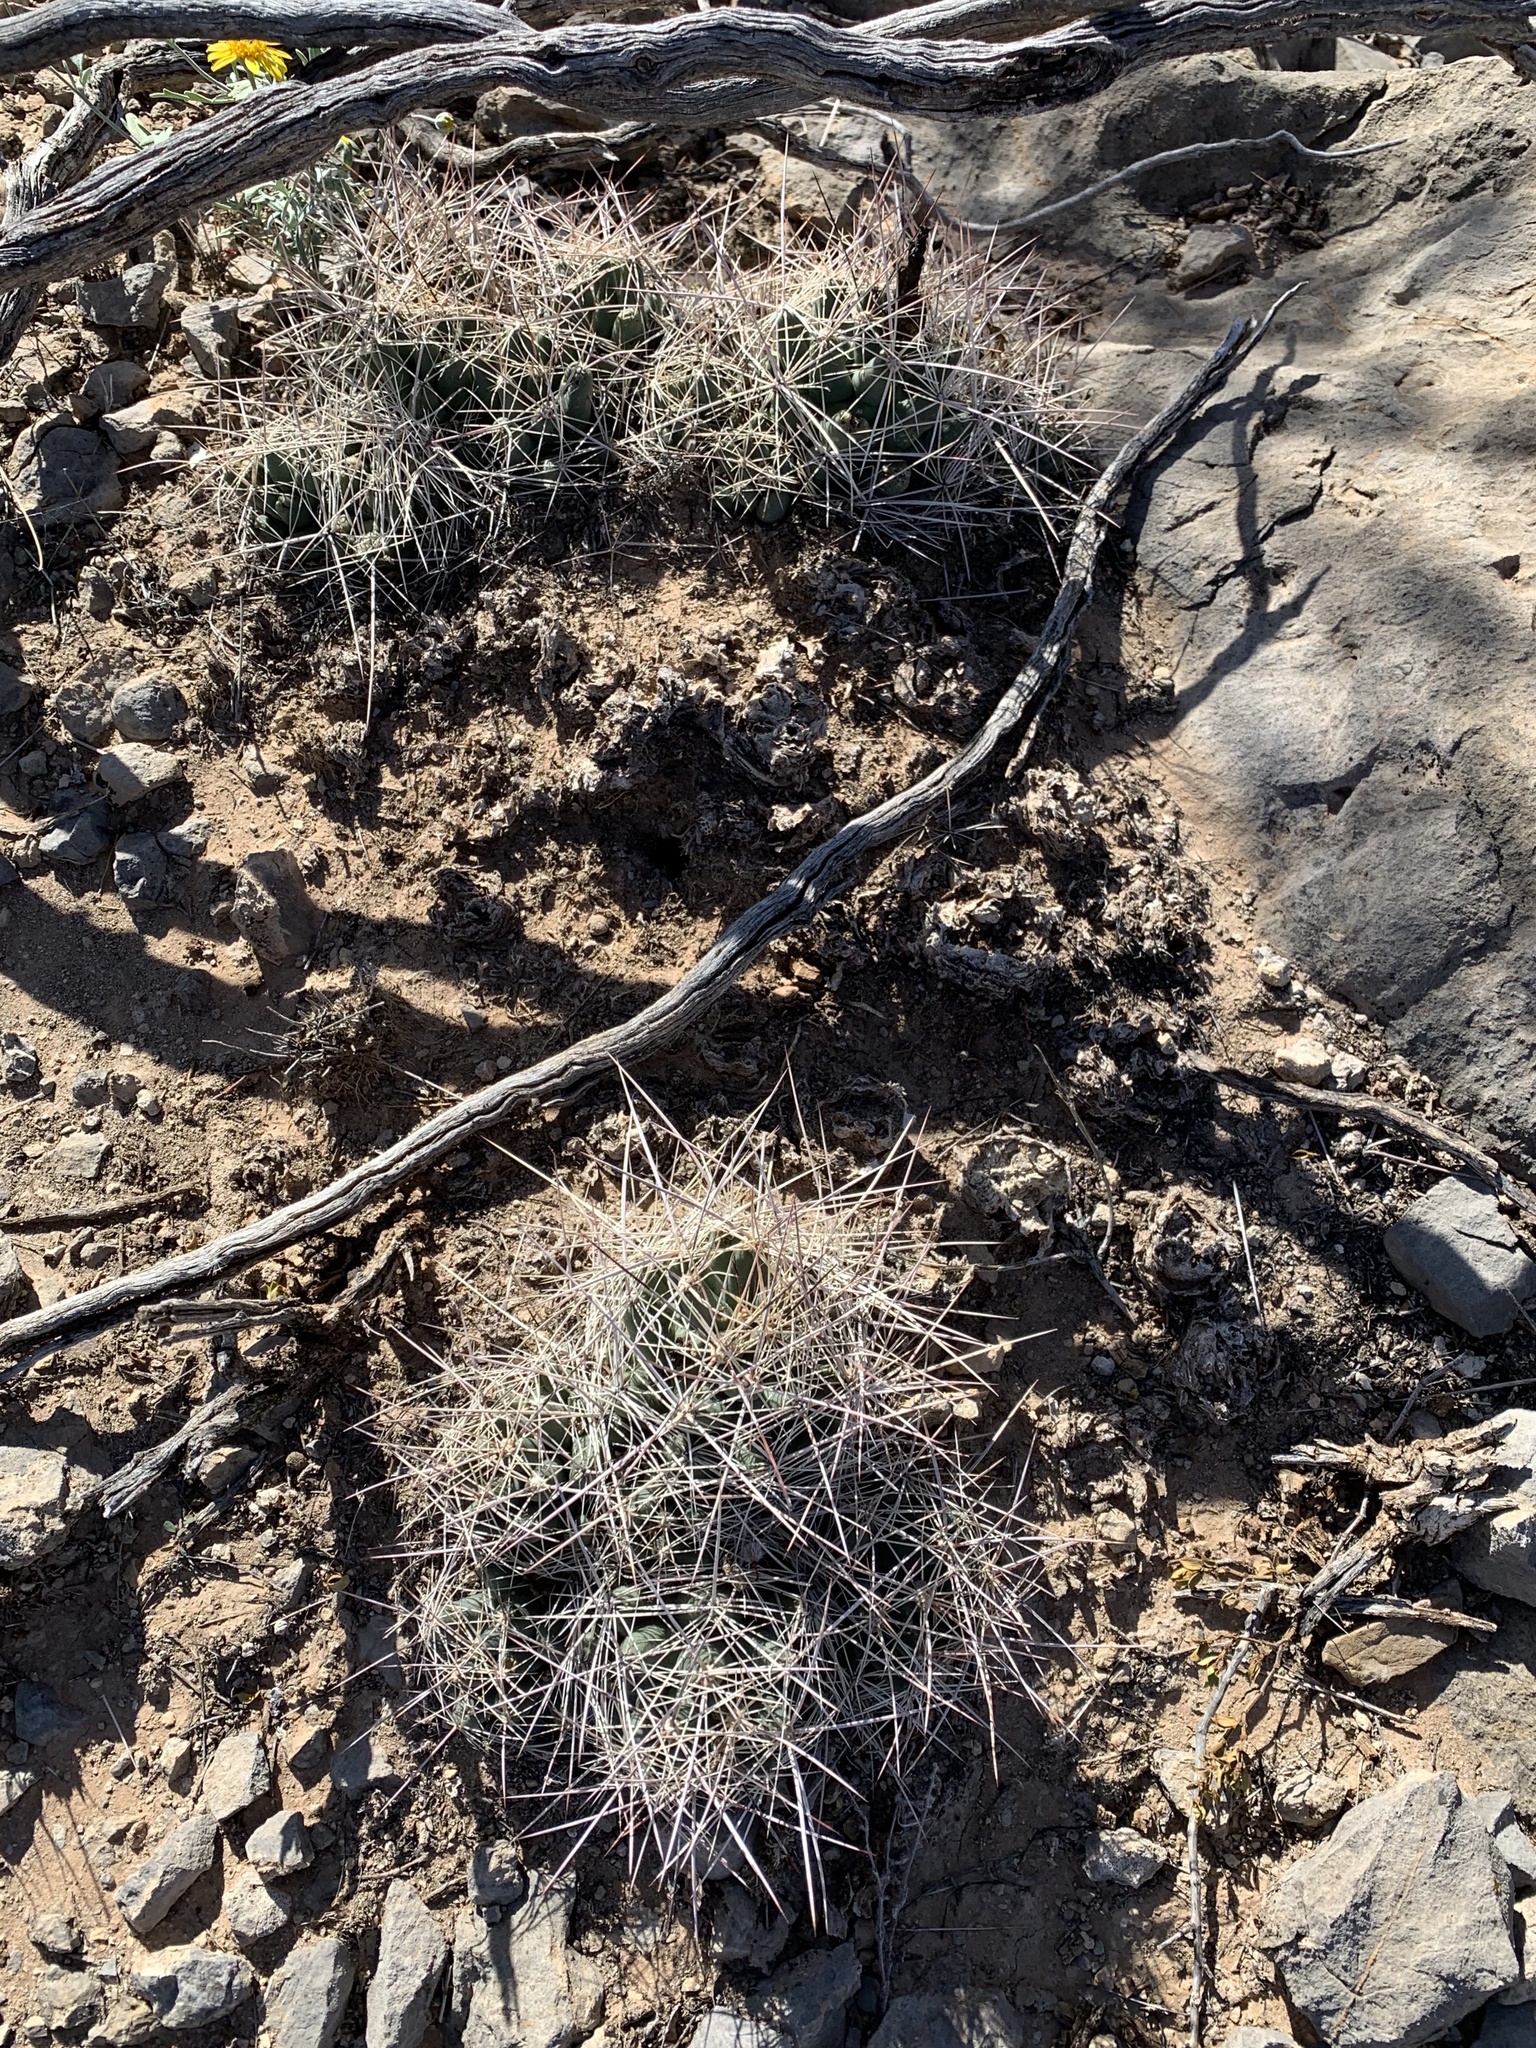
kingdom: Plantae
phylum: Tracheophyta
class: Magnoliopsida
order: Caryophyllales
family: Cactaceae
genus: Coryphantha
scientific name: Coryphantha macromeris
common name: Nipple beehive cactus
